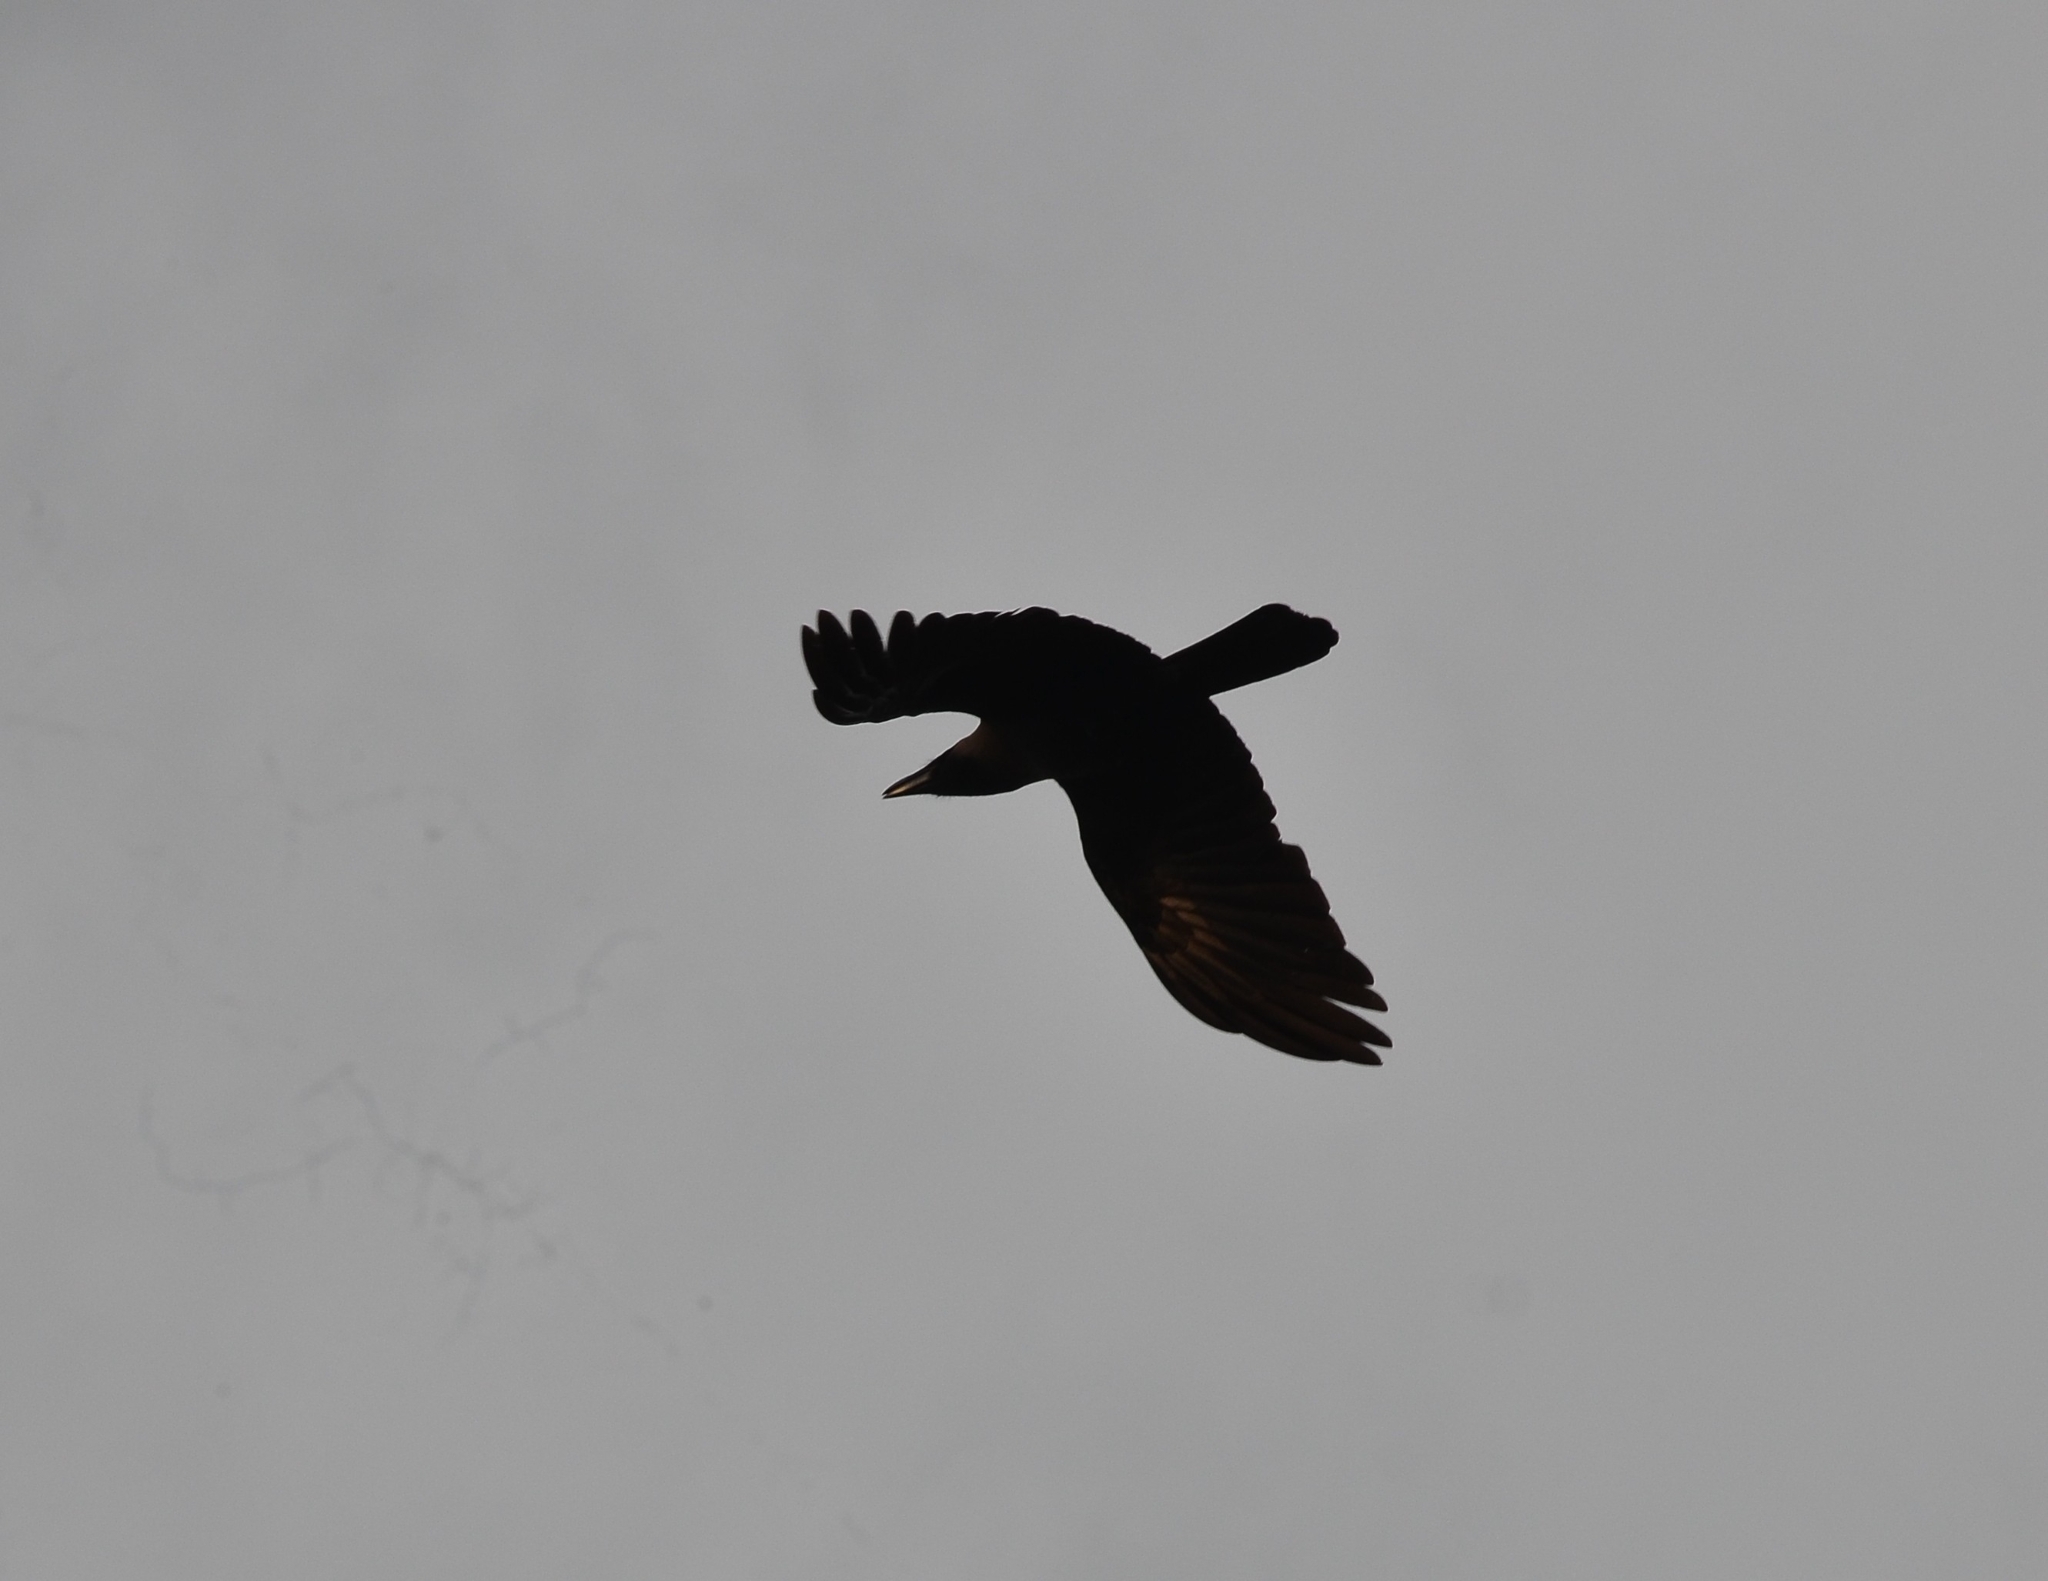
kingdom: Animalia
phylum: Chordata
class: Aves
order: Passeriformes
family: Corvidae
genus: Corvus
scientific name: Corvus macrorhynchos
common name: Large-billed crow
